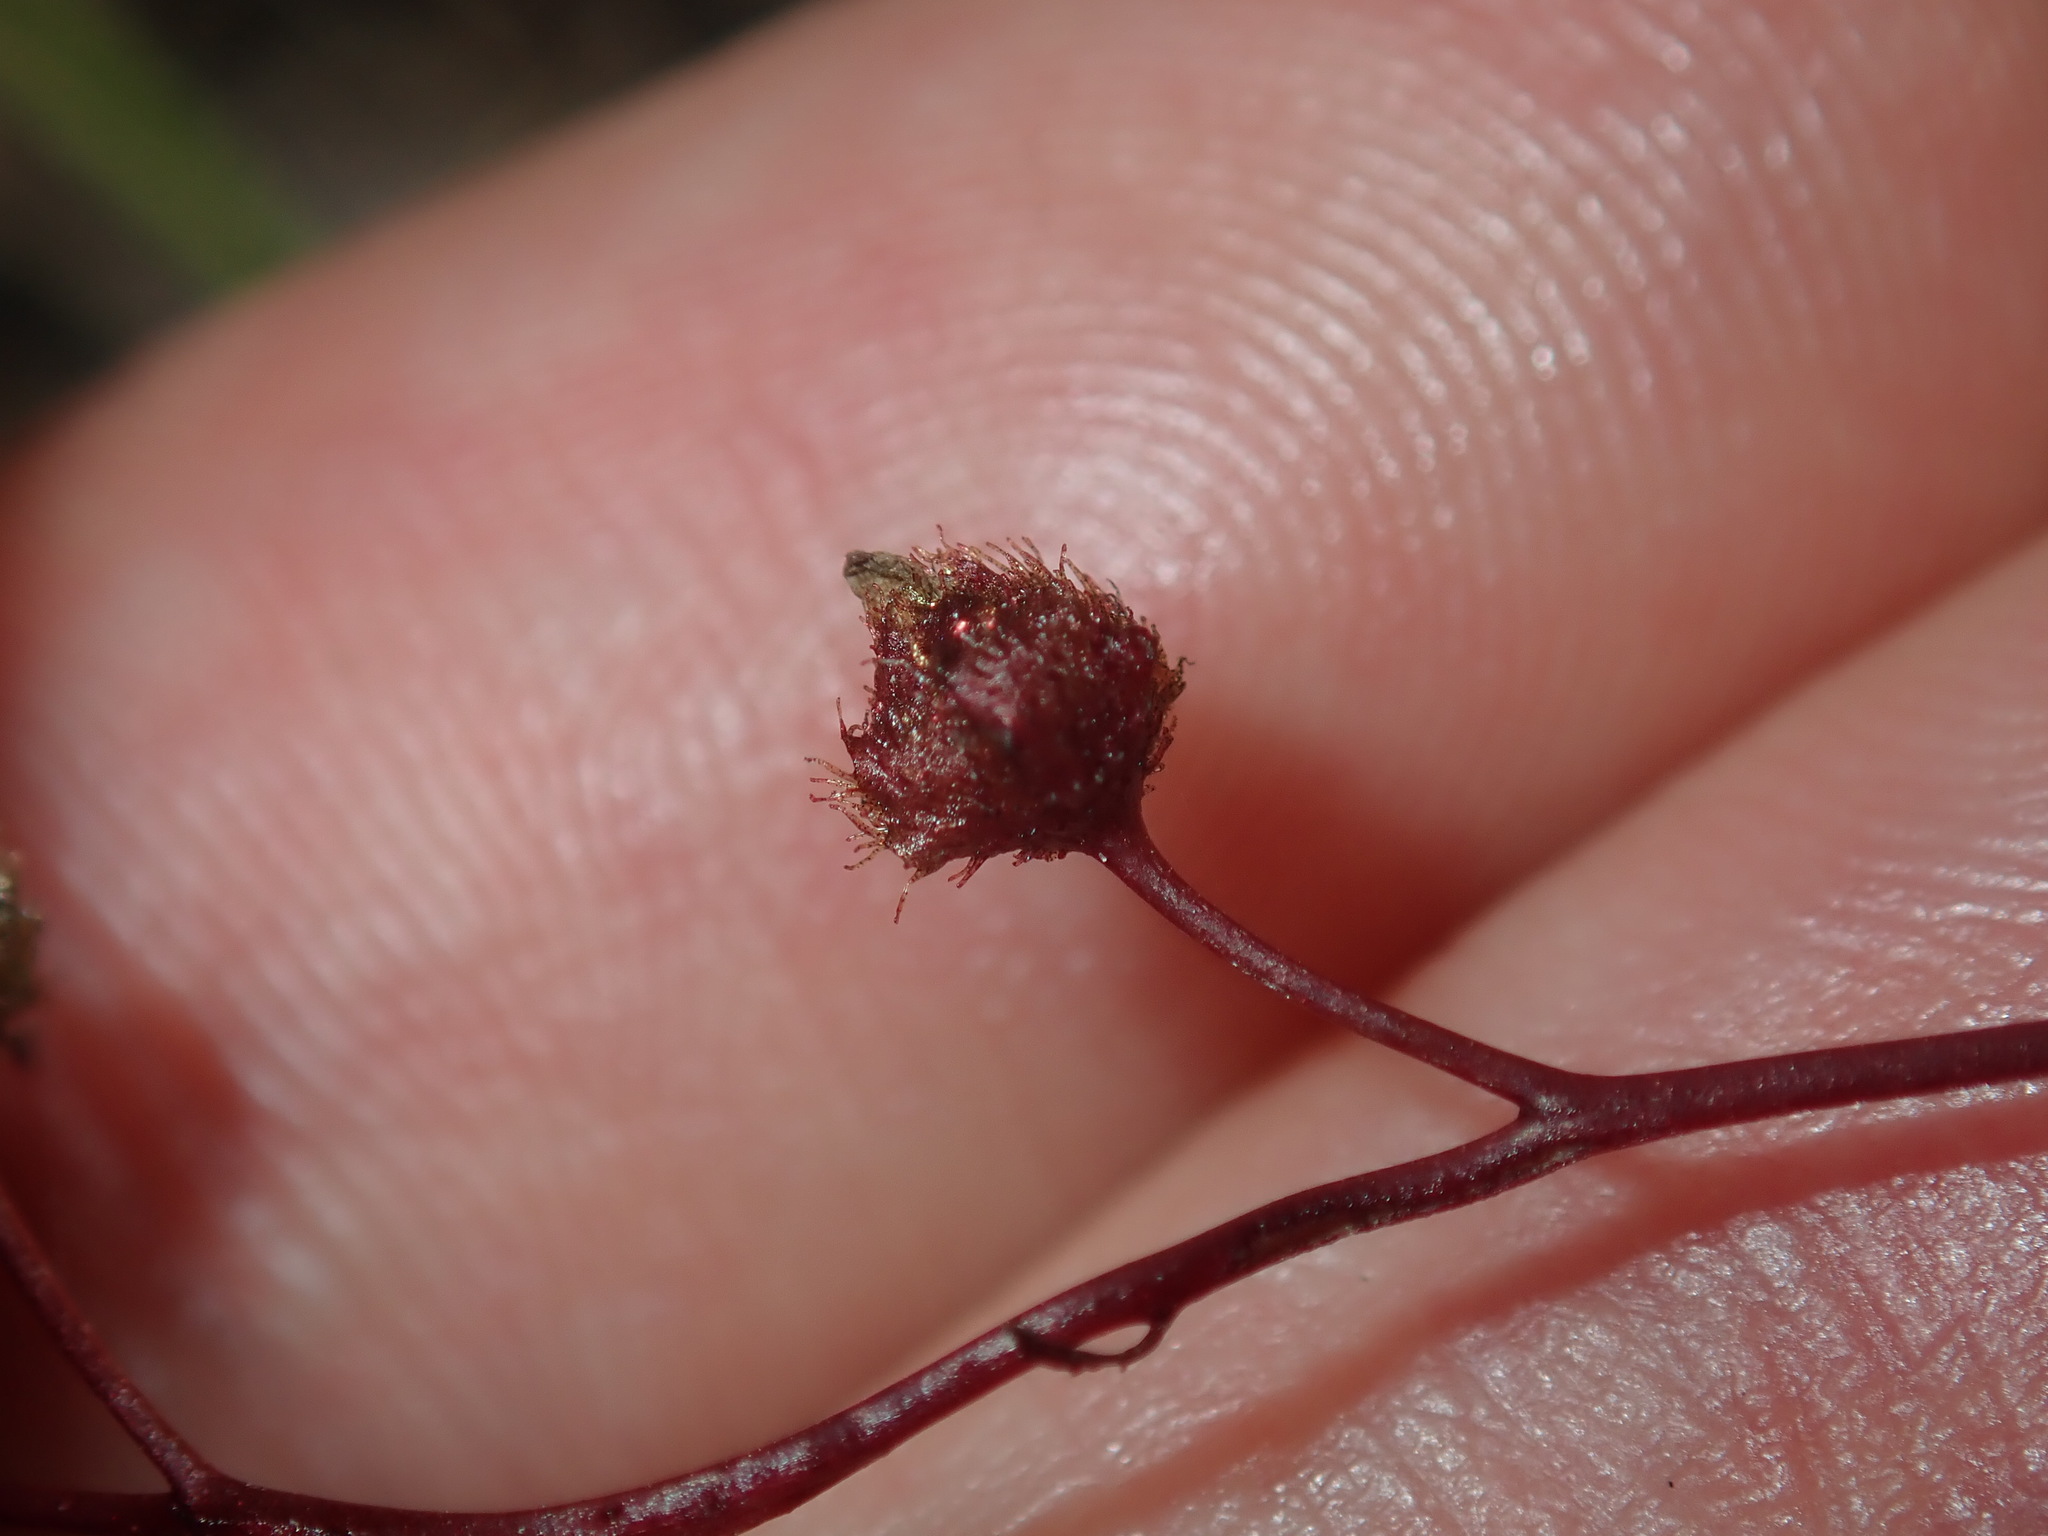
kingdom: Plantae
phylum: Tracheophyta
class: Magnoliopsida
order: Caryophyllales
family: Droseraceae
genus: Drosera
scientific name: Drosera peltata
